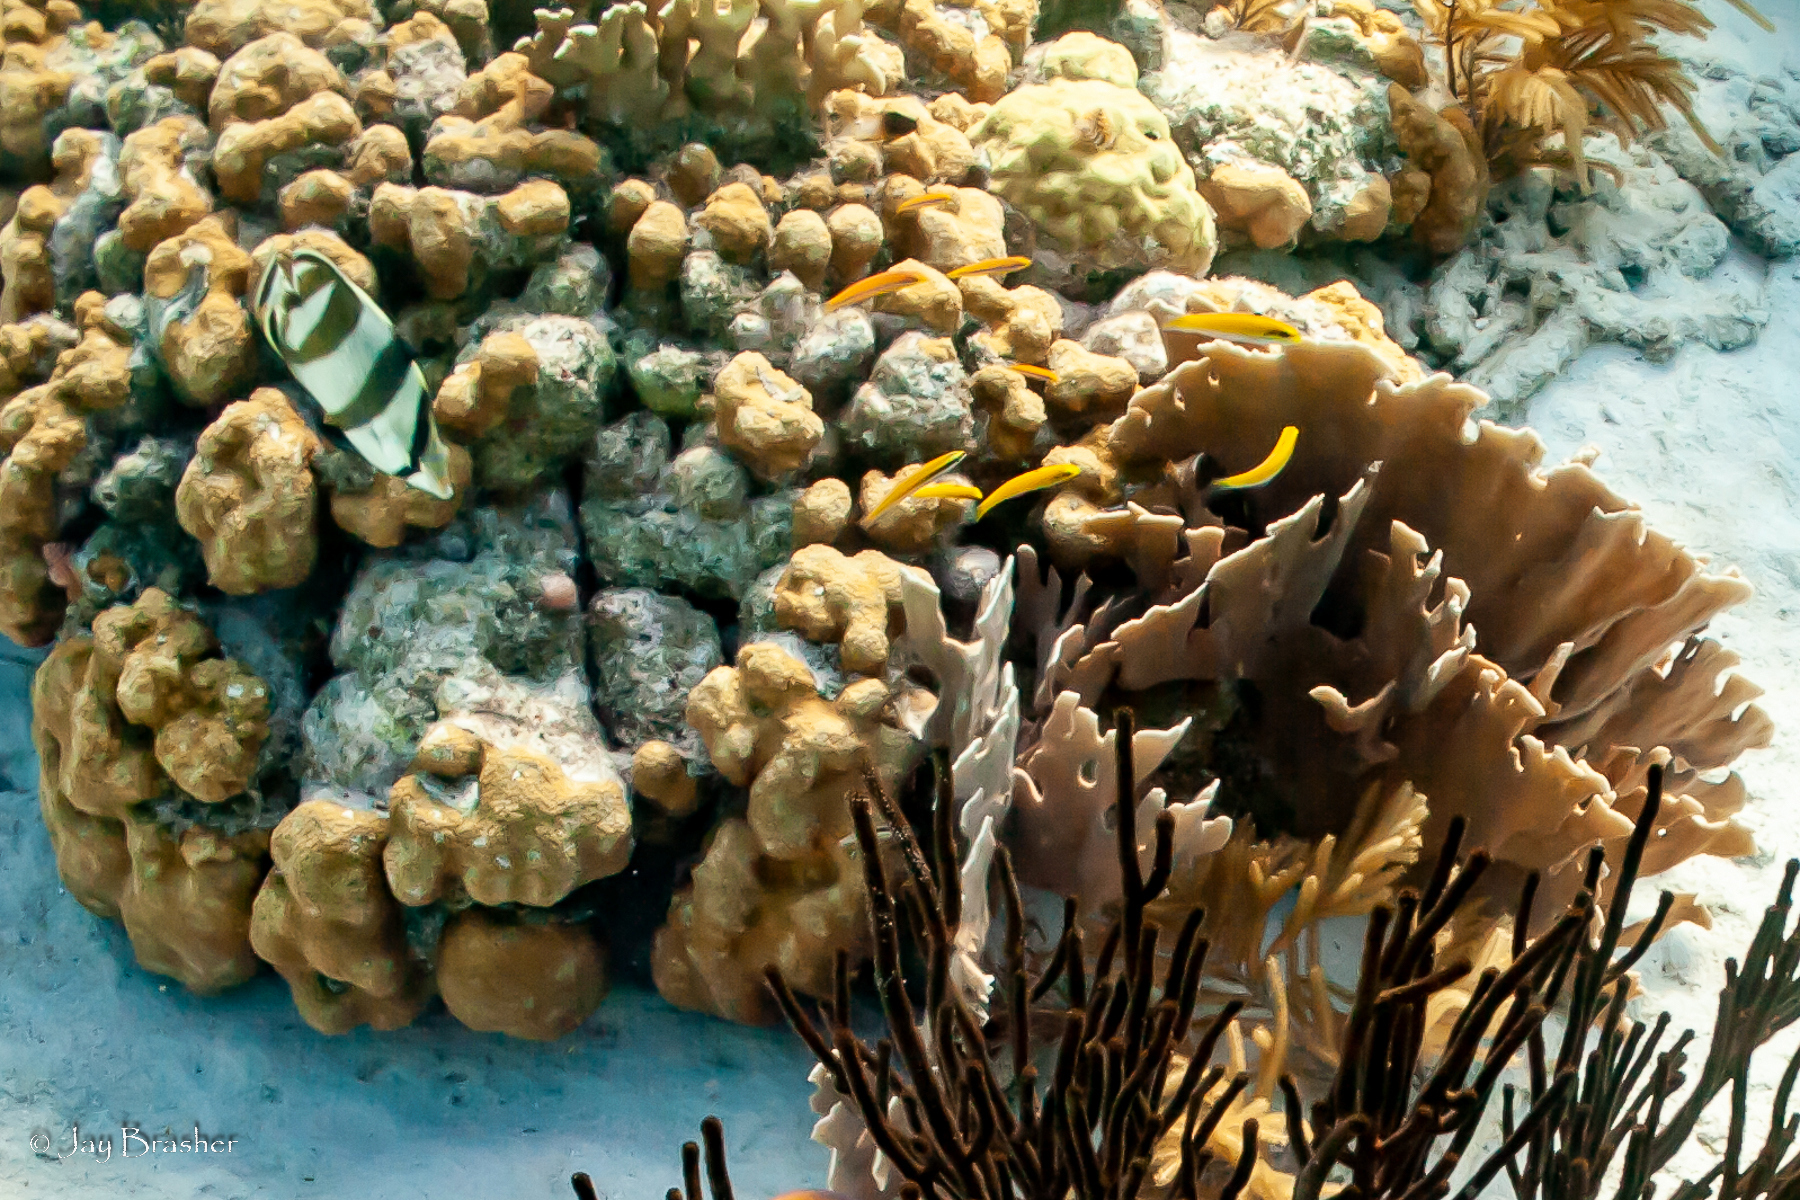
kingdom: Animalia
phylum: Cnidaria
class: Anthozoa
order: Scleractinia
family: Merulinidae
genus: Orbicella
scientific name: Orbicella annularis
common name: Boulder star coral
